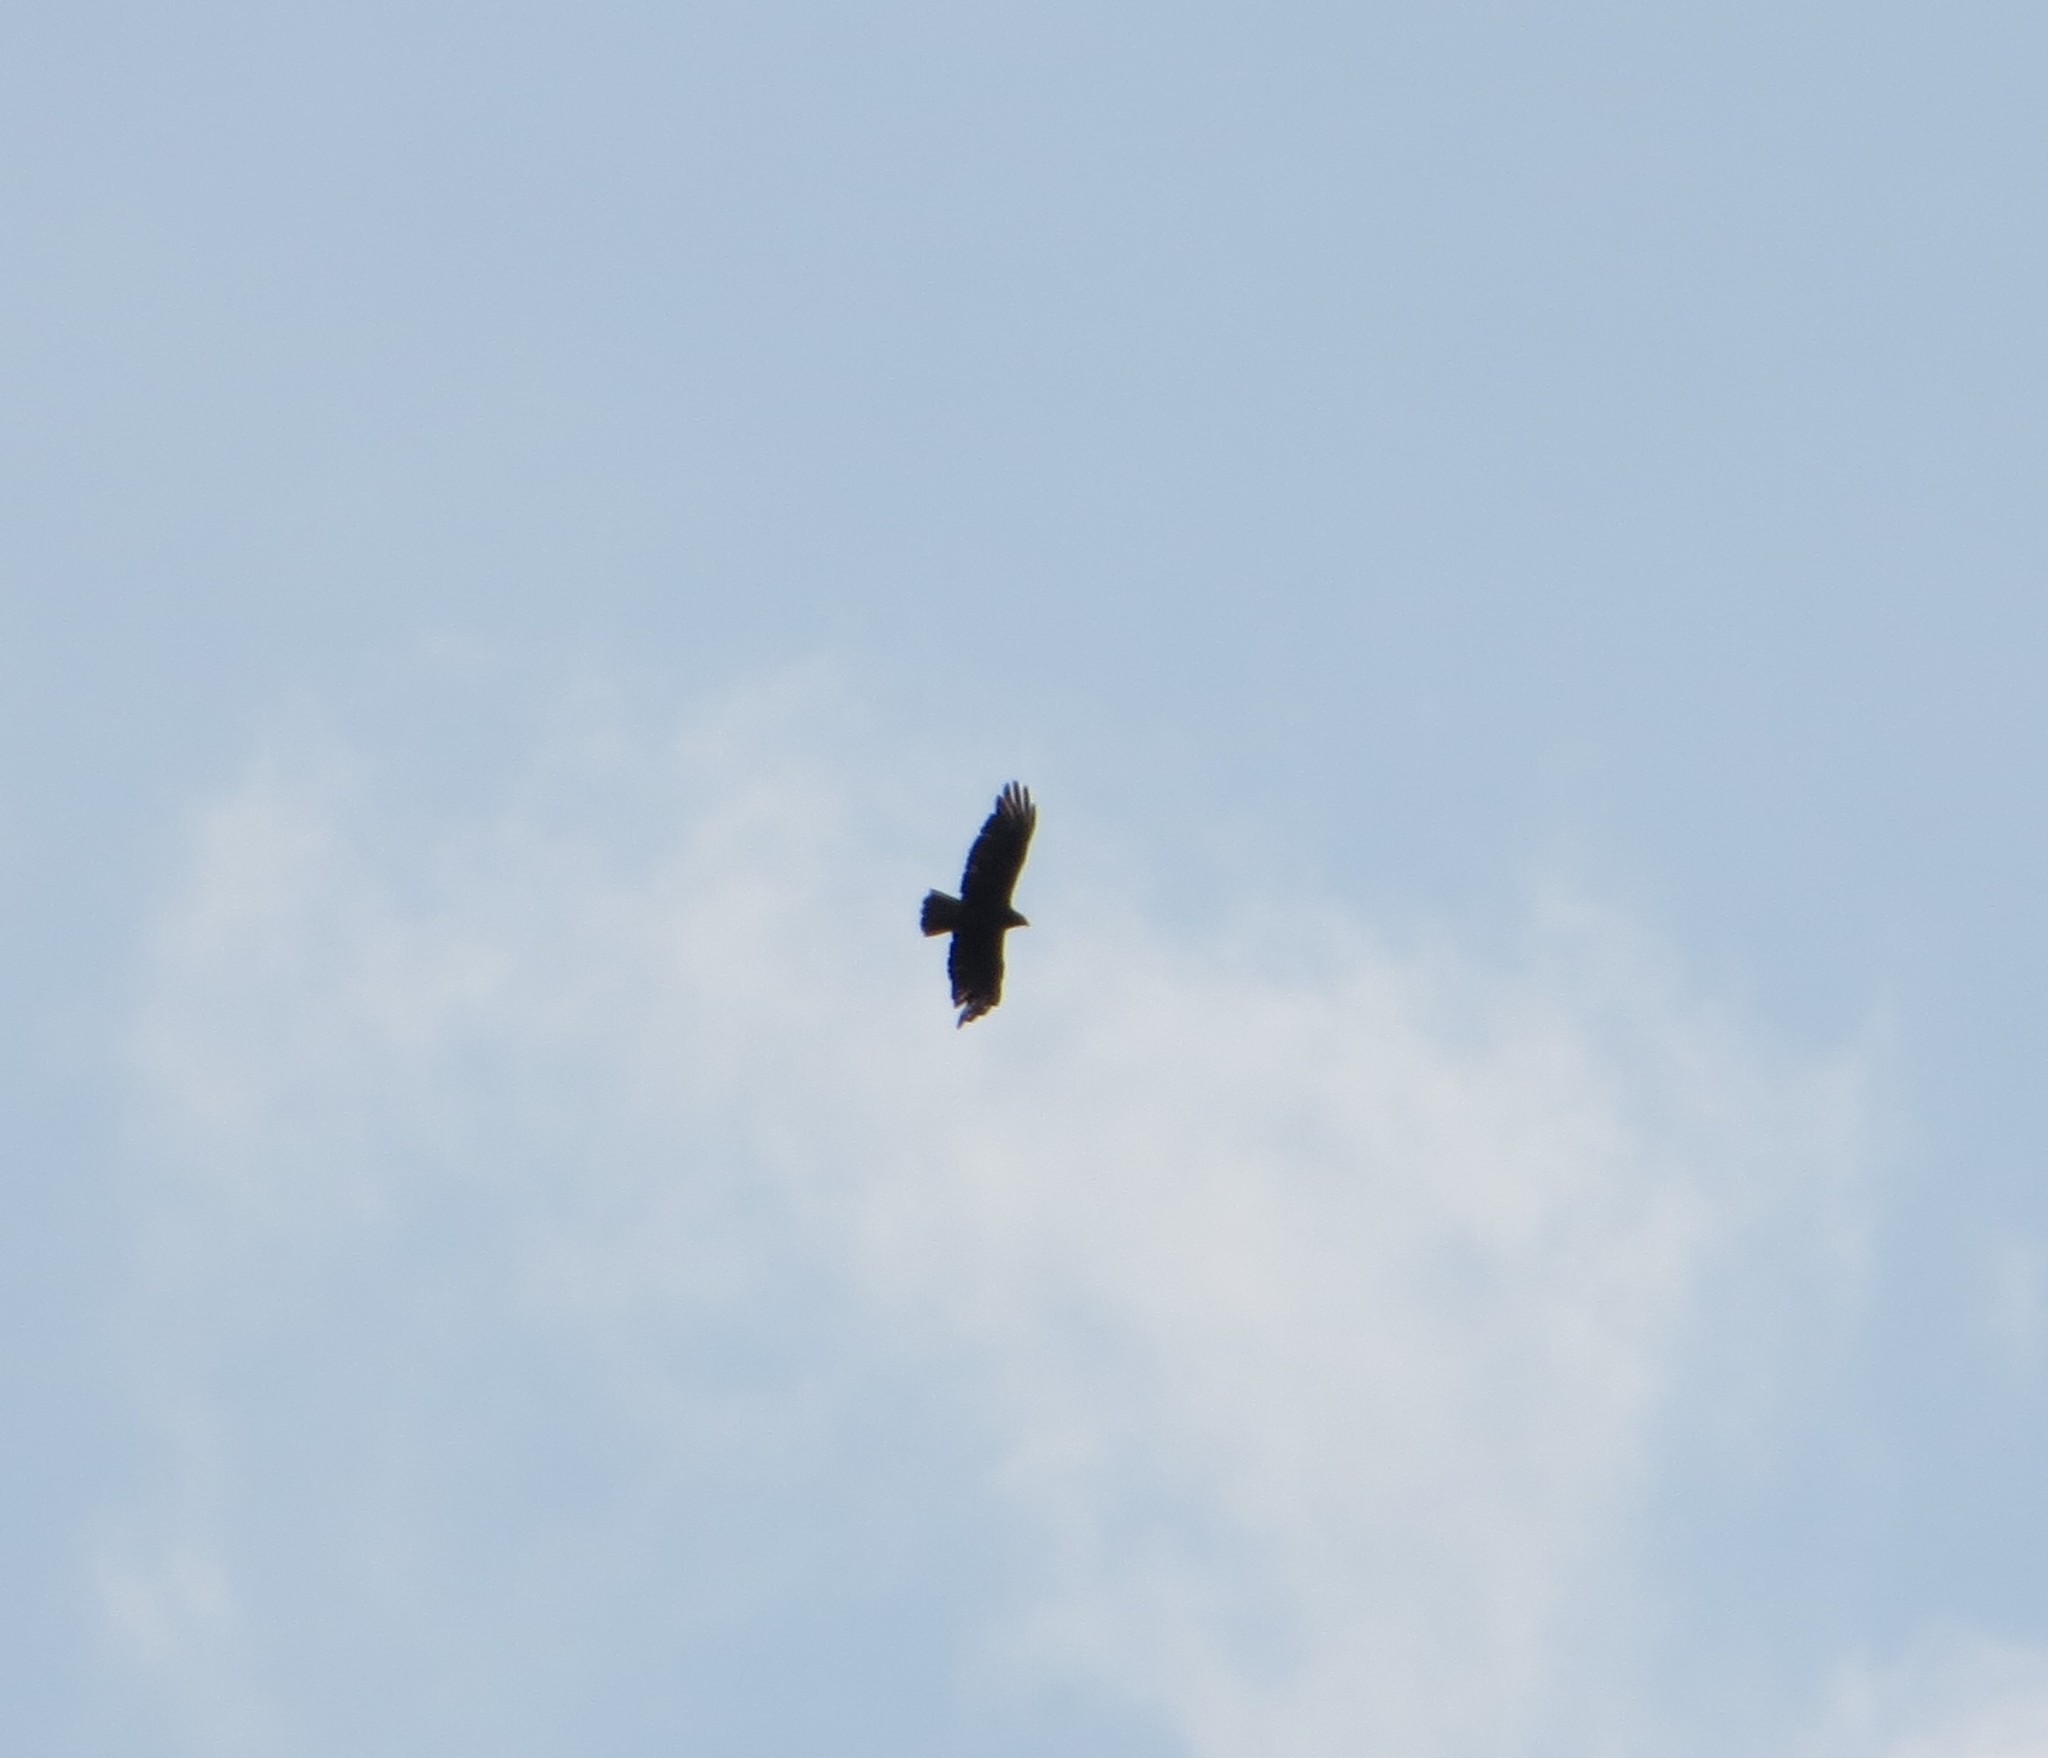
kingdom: Animalia
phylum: Chordata
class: Aves
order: Accipitriformes
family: Accipitridae
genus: Buteo
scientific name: Buteo buteo
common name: Common buzzard
